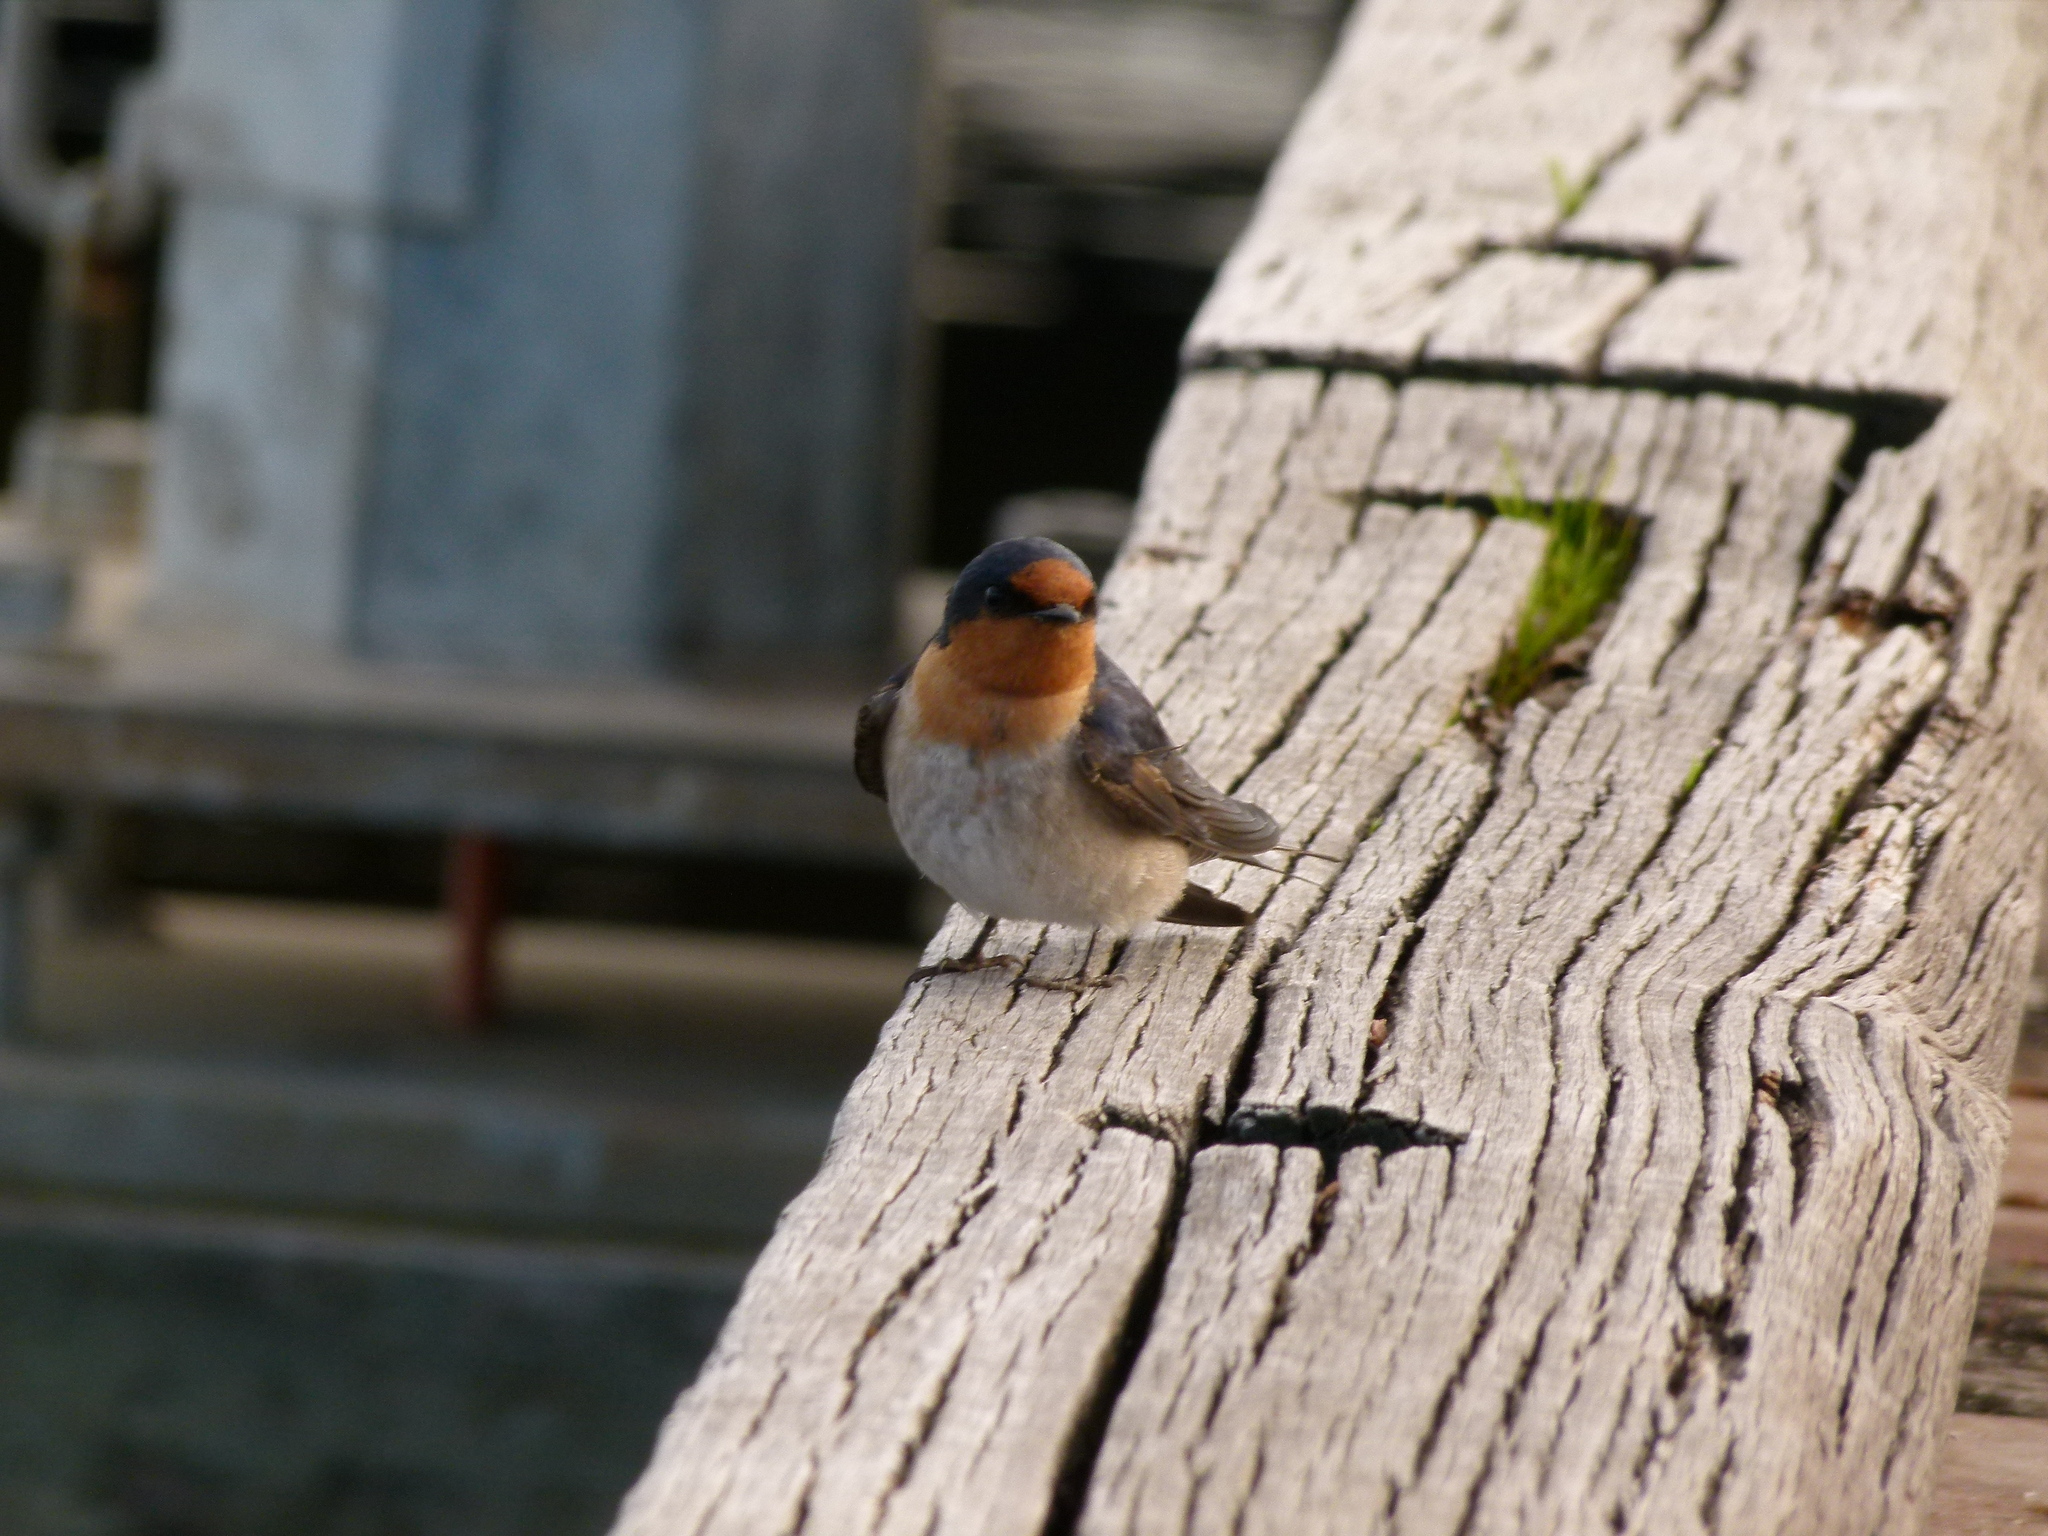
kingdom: Animalia
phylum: Chordata
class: Aves
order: Passeriformes
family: Hirundinidae
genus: Hirundo
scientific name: Hirundo neoxena
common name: Welcome swallow
